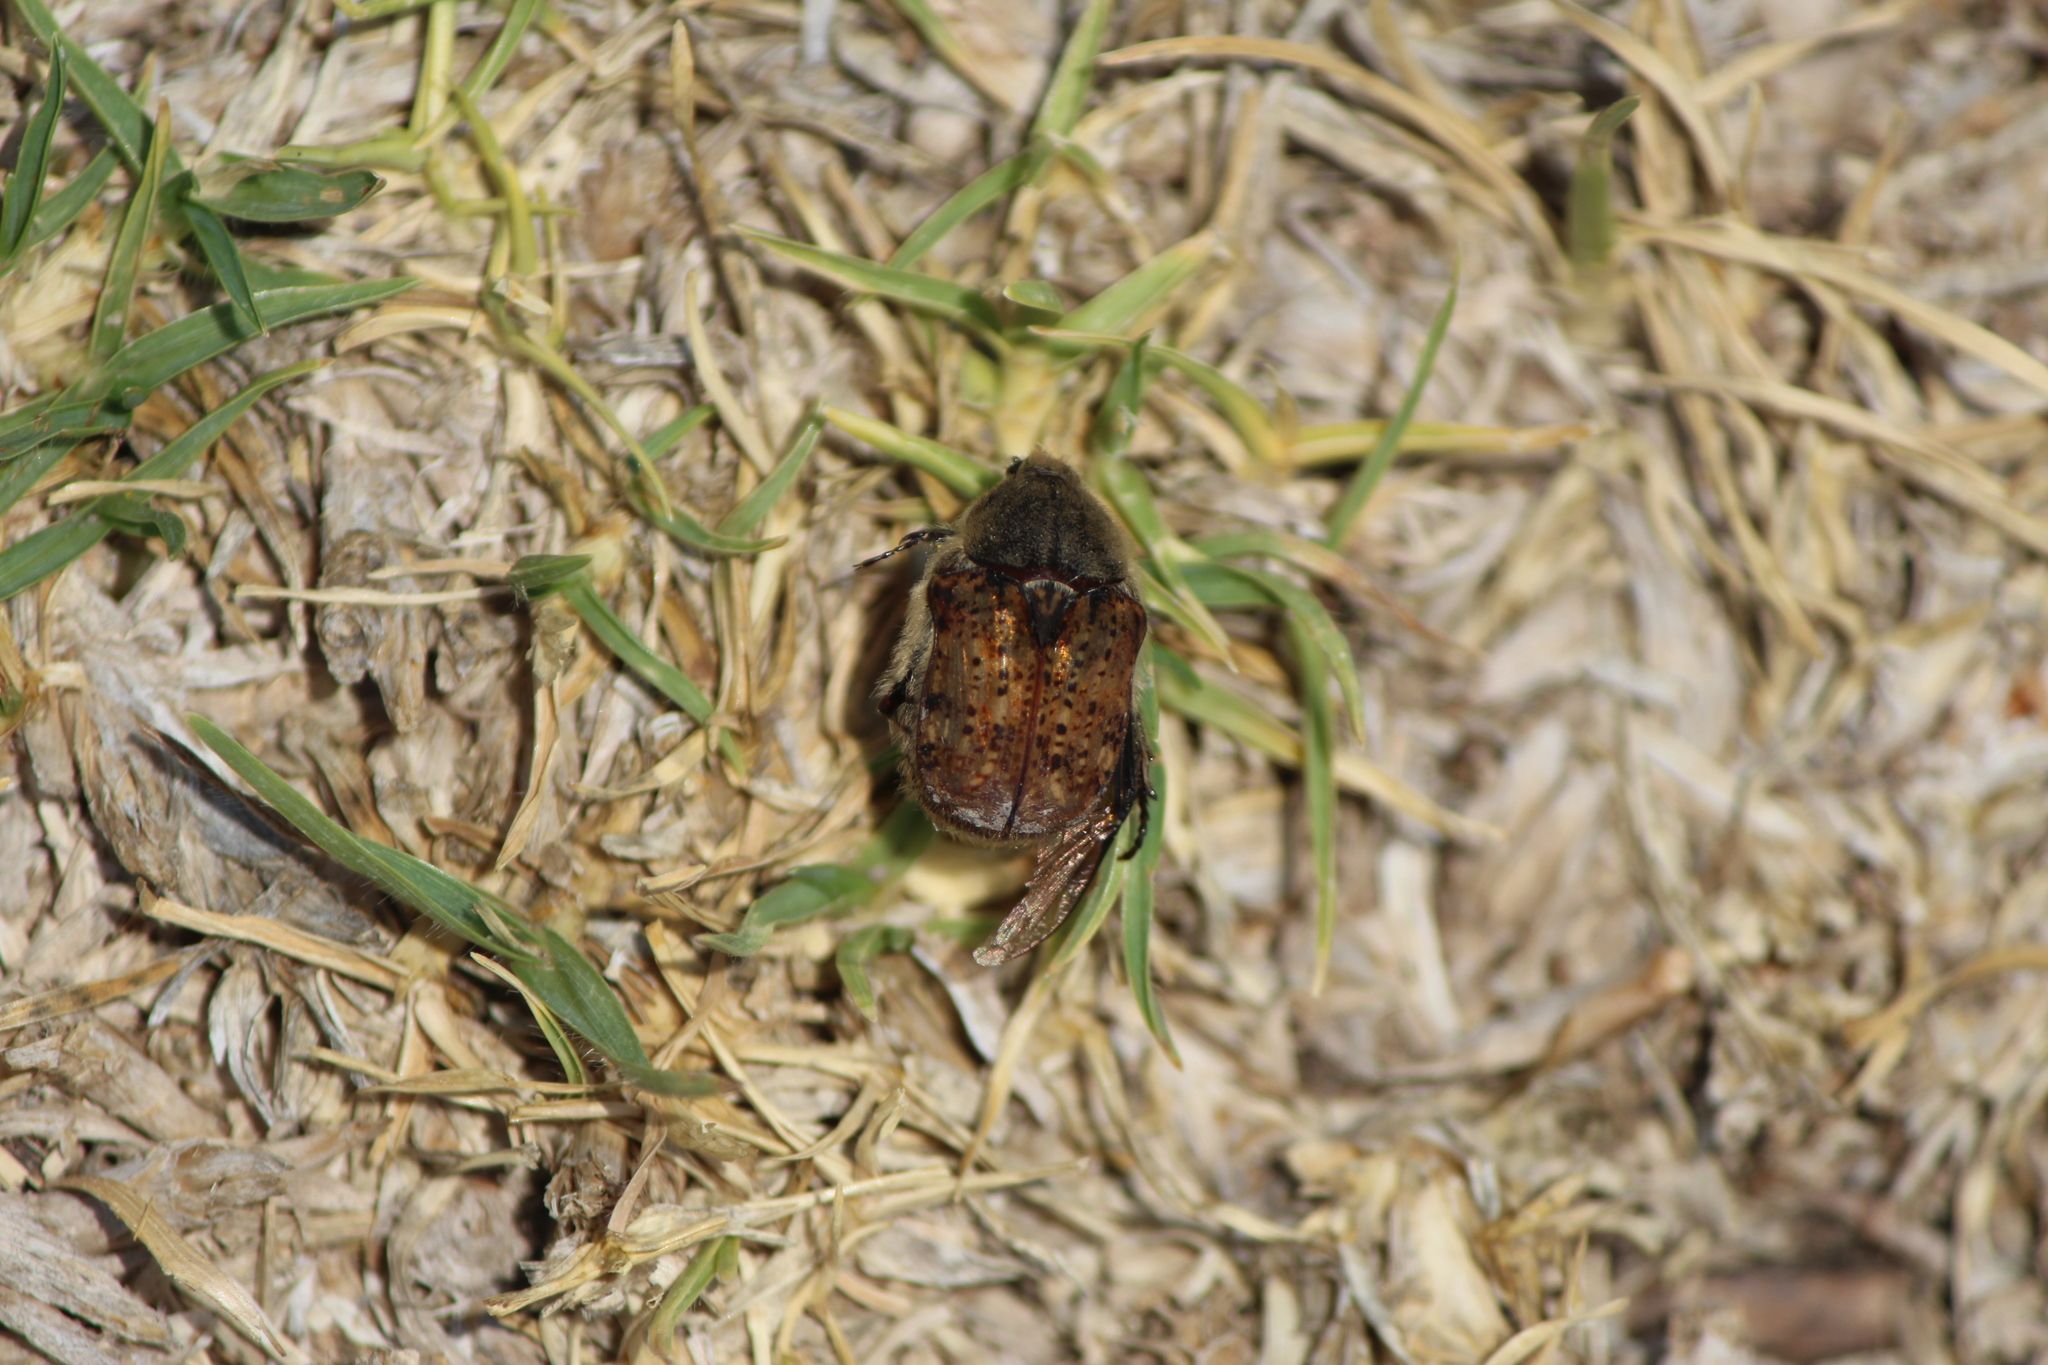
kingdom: Animalia
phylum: Arthropoda
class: Insecta
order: Coleoptera
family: Scarabaeidae
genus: Euphoria
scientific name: Euphoria inda
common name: Bumble flower beetle
